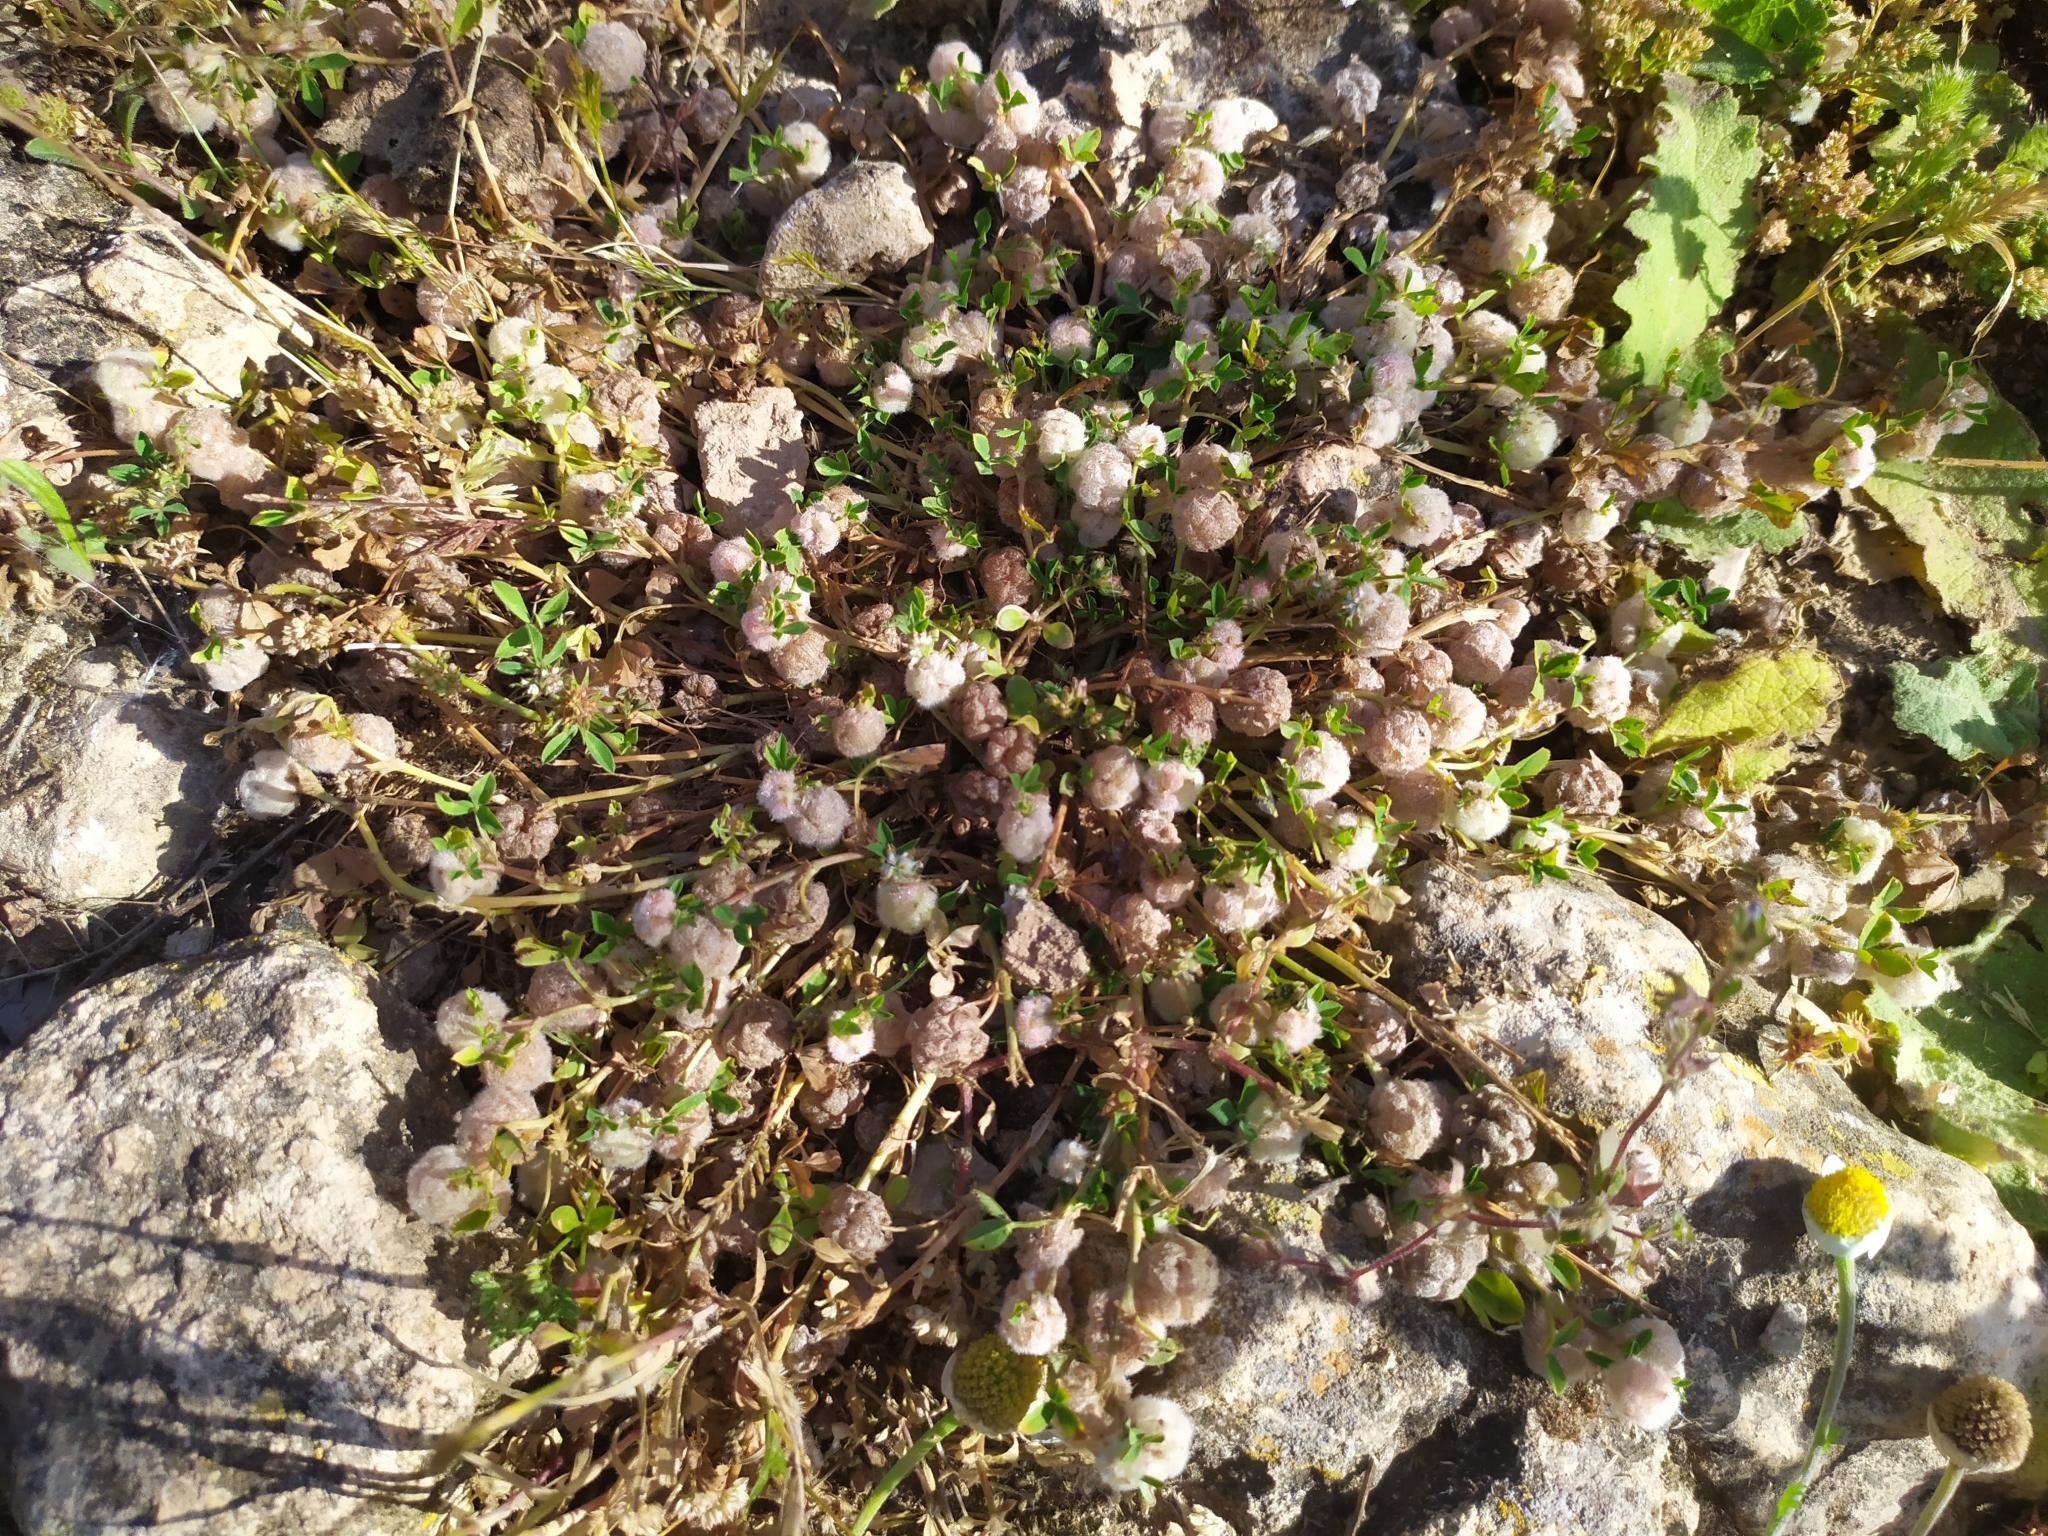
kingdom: Plantae
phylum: Tracheophyta
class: Magnoliopsida
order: Fabales
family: Fabaceae
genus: Trifolium
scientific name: Trifolium tomentosum
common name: Woolly clover
